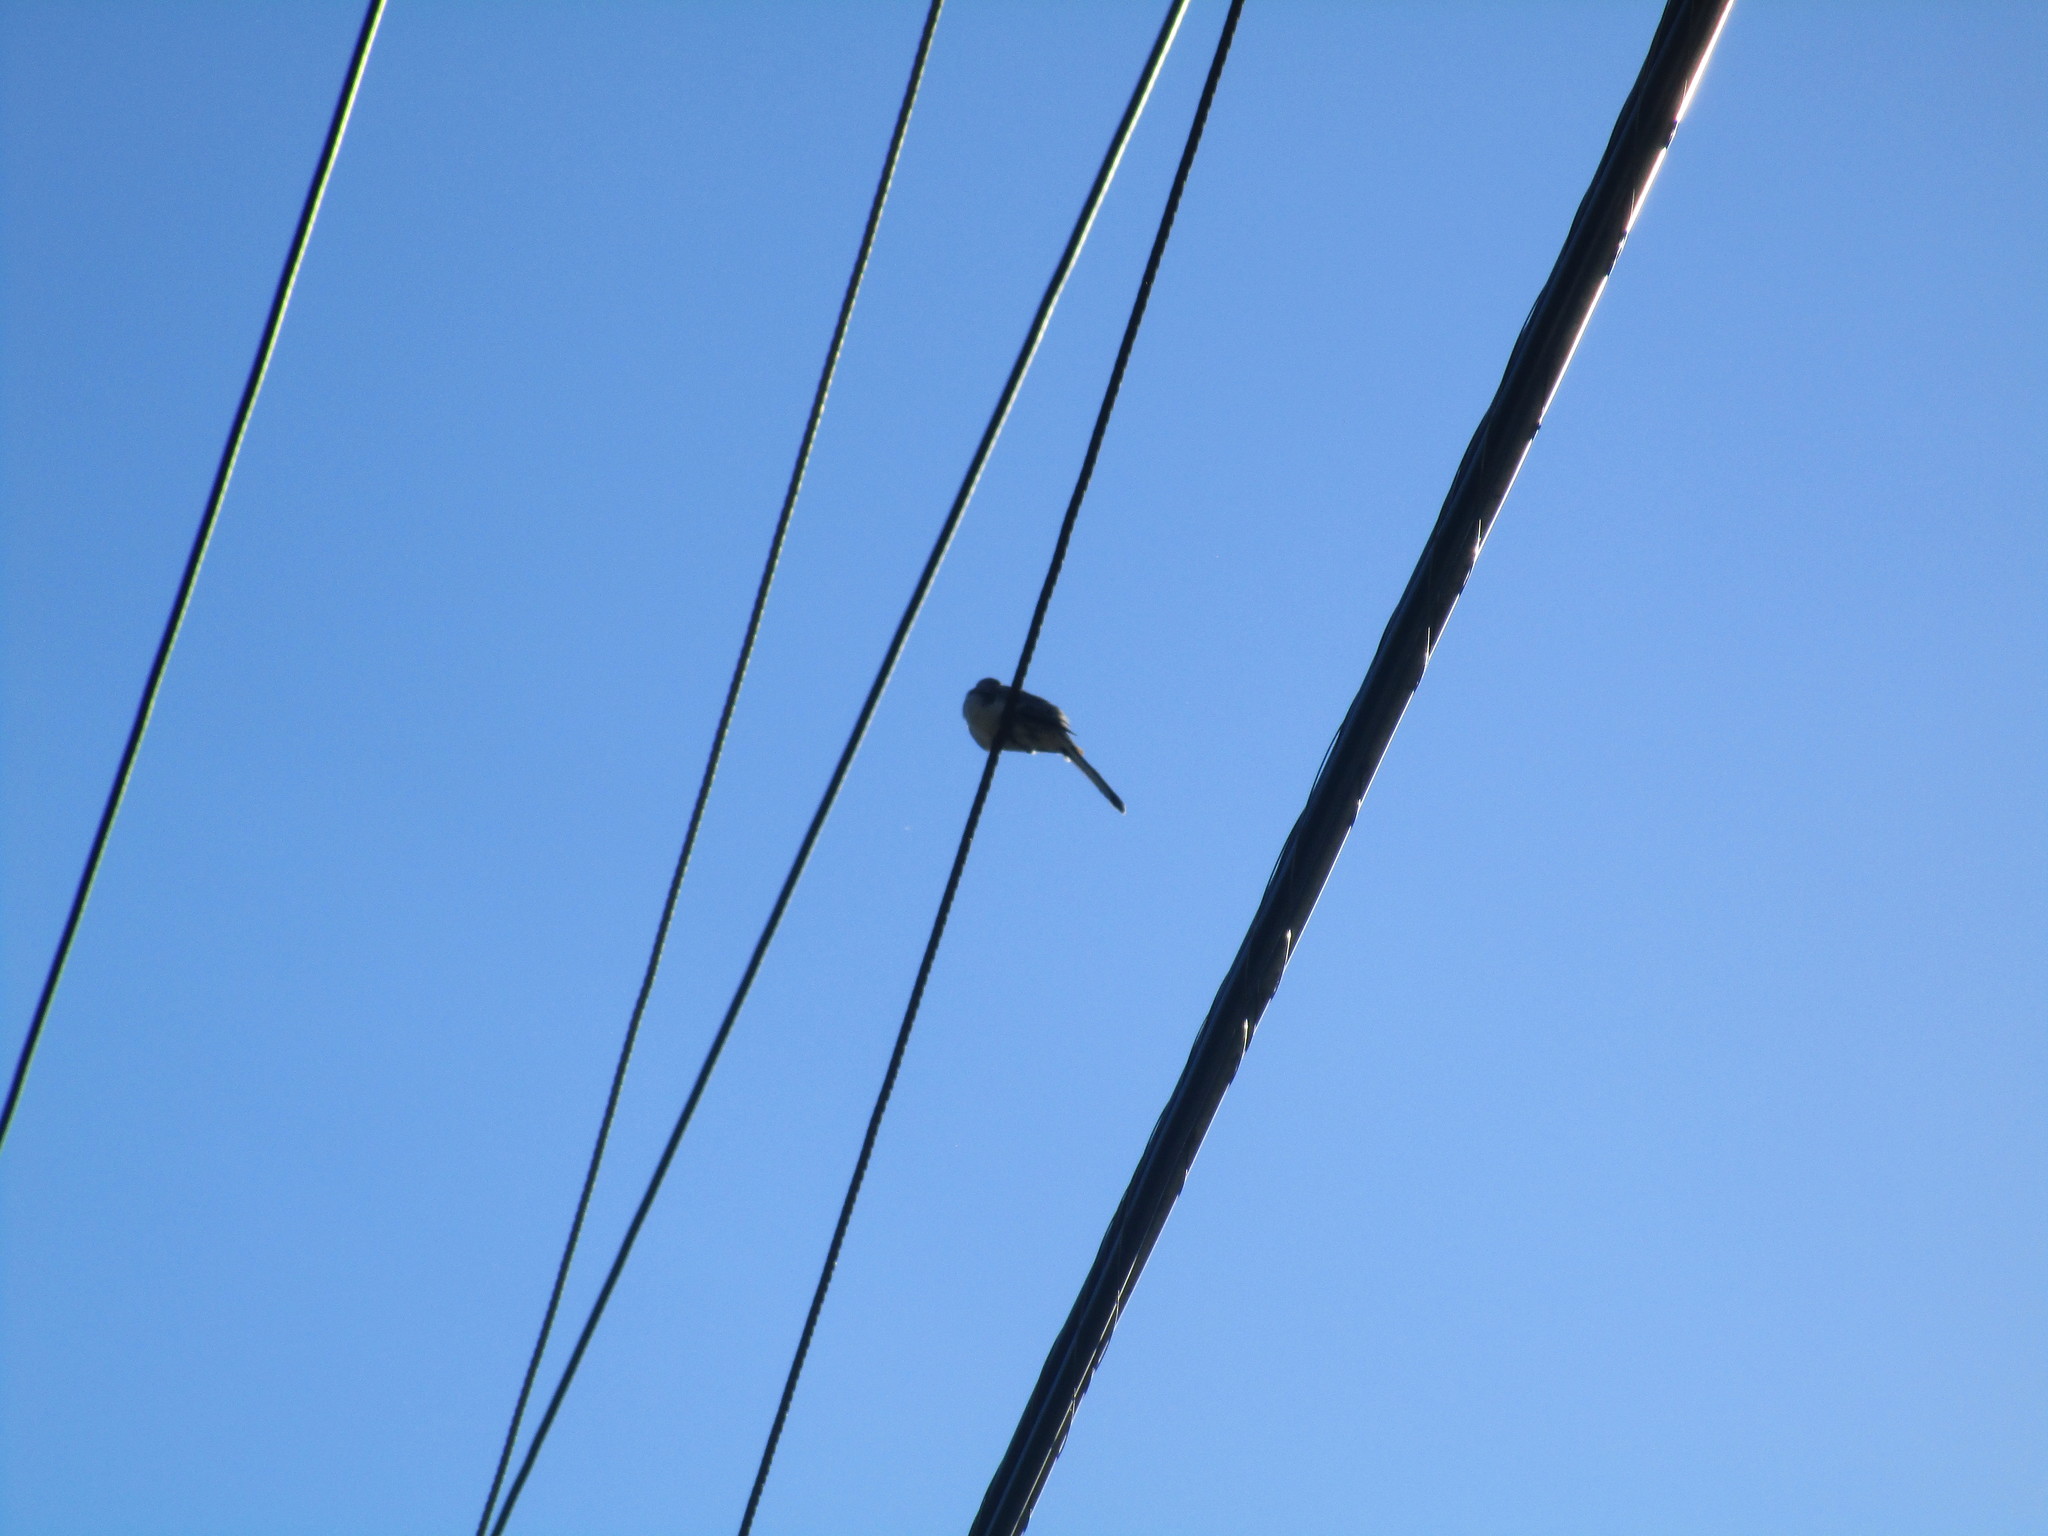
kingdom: Animalia
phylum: Chordata
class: Aves
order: Passeriformes
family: Mimidae
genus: Mimus
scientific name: Mimus polyglottos
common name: Northern mockingbird
